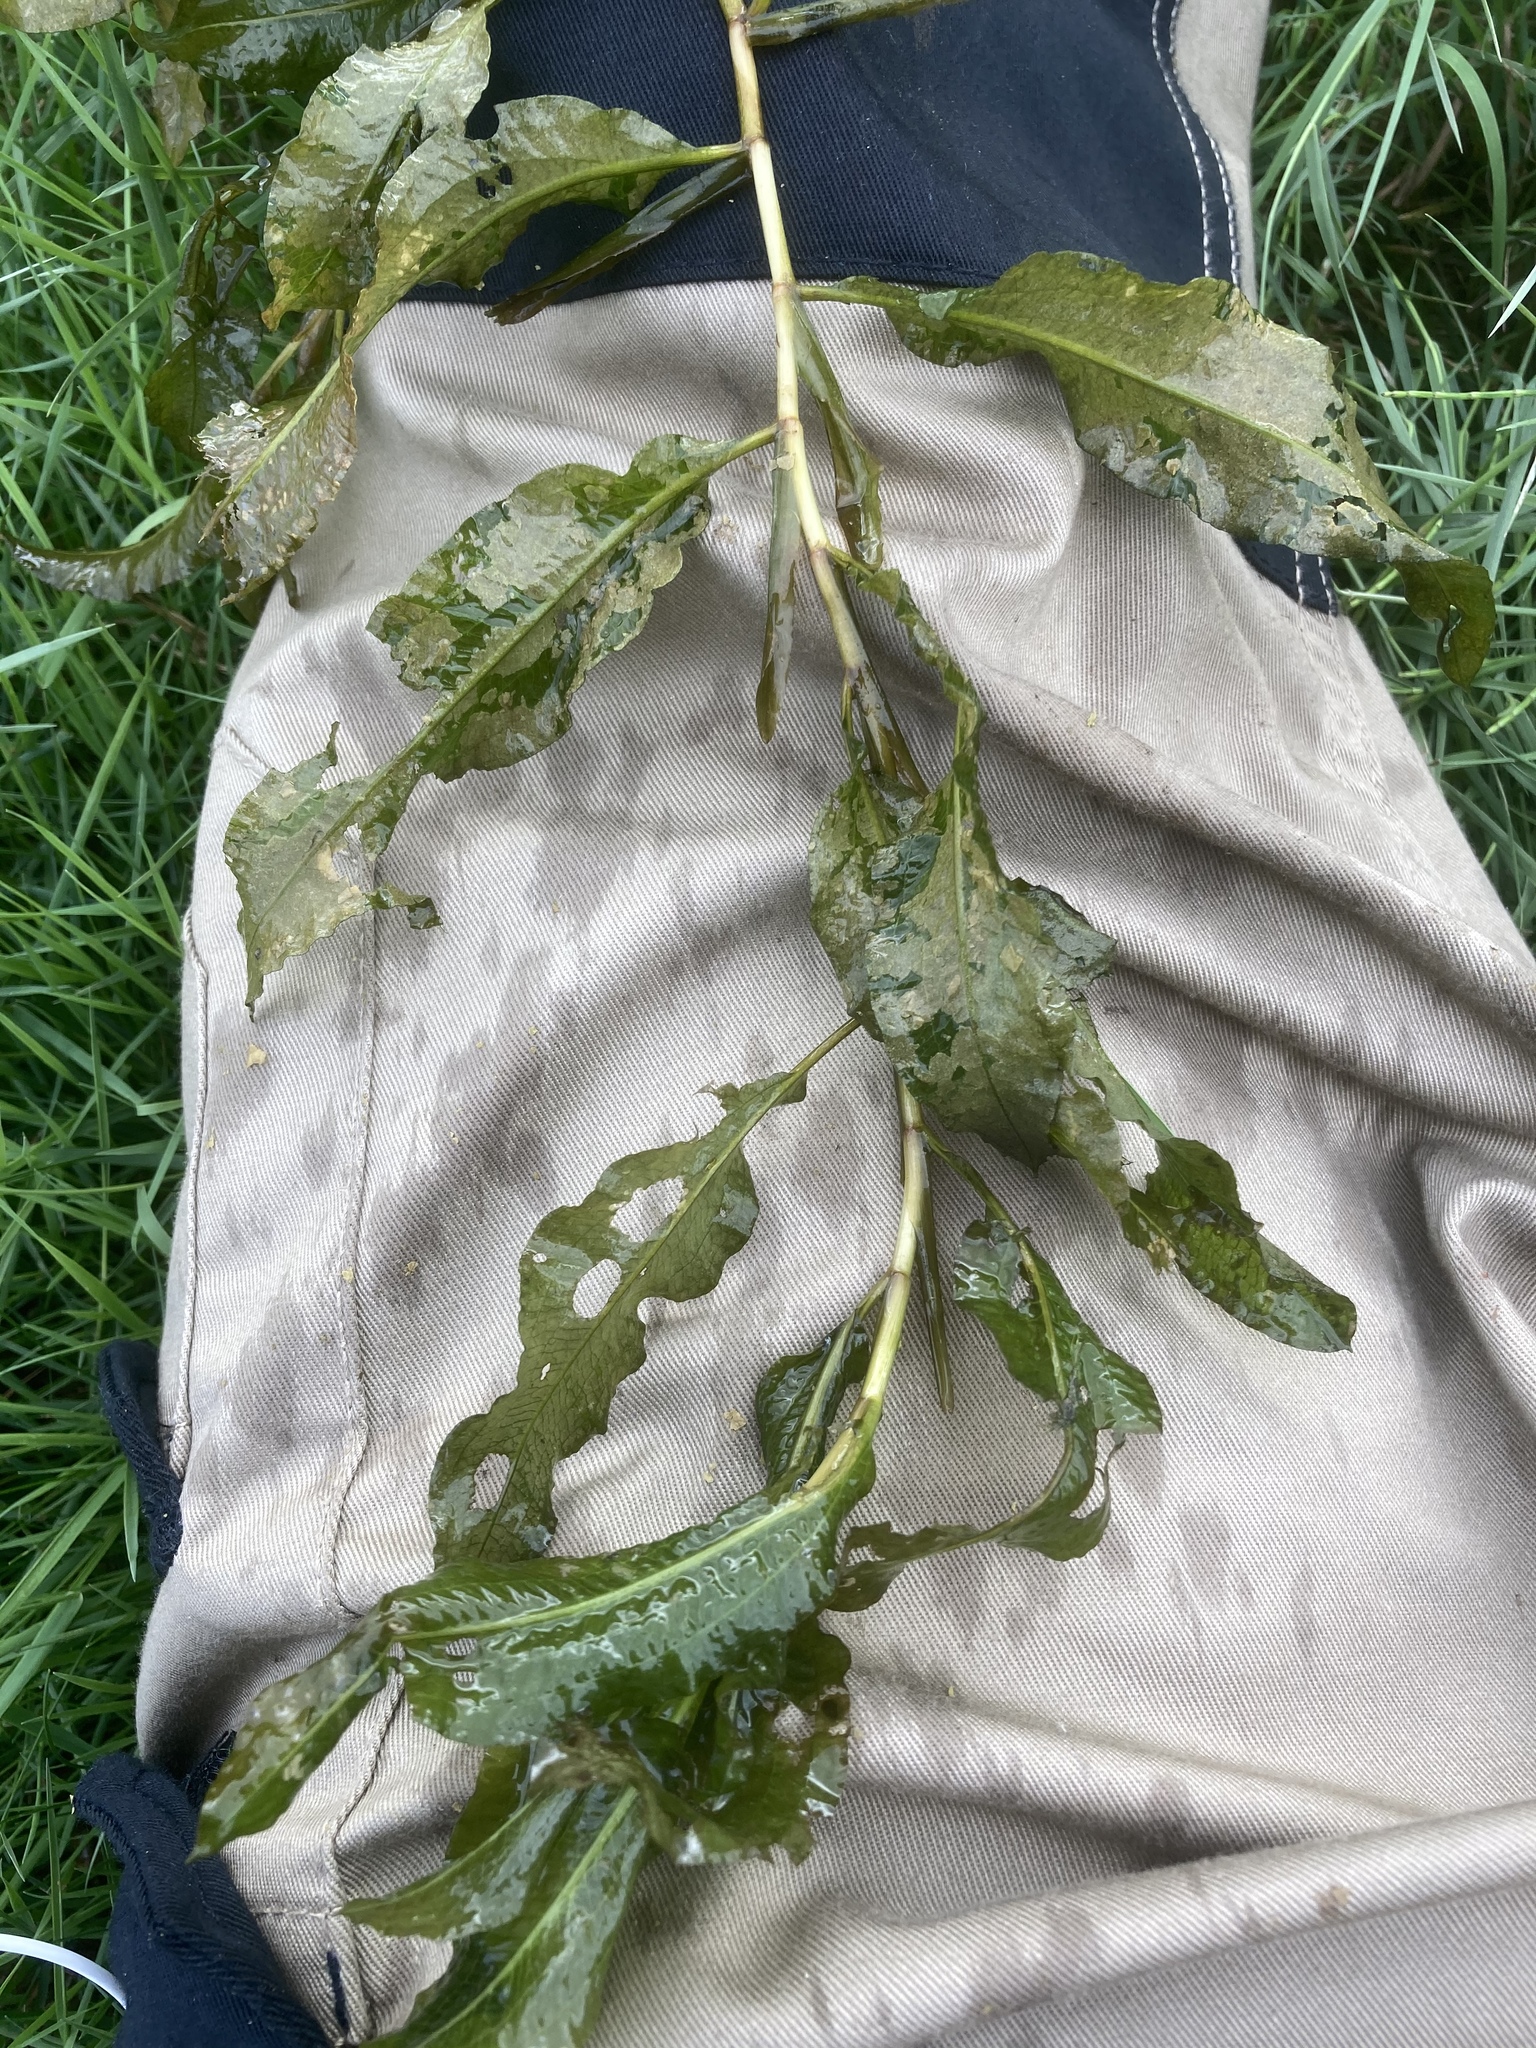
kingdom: Plantae
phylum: Tracheophyta
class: Liliopsida
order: Alismatales
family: Potamogetonaceae
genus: Potamogeton
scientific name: Potamogeton lucens
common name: Shining pondweed
